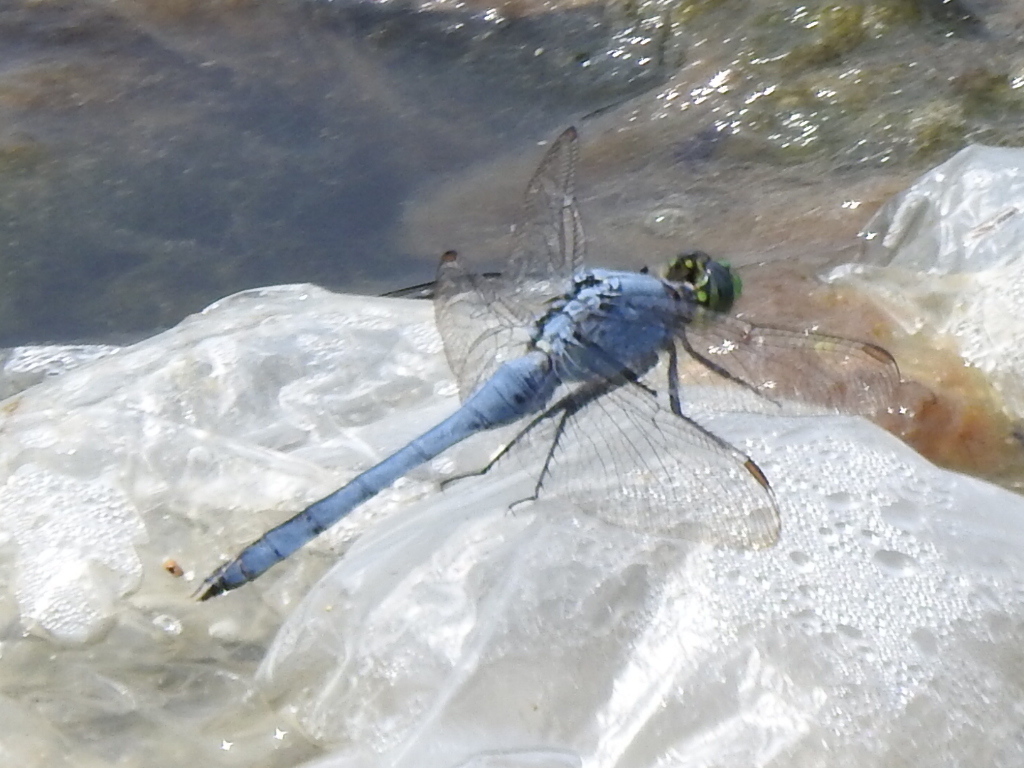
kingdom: Animalia
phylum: Arthropoda
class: Insecta
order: Odonata
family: Libellulidae
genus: Erythemis
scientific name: Erythemis simplicicollis
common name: Eastern pondhawk
